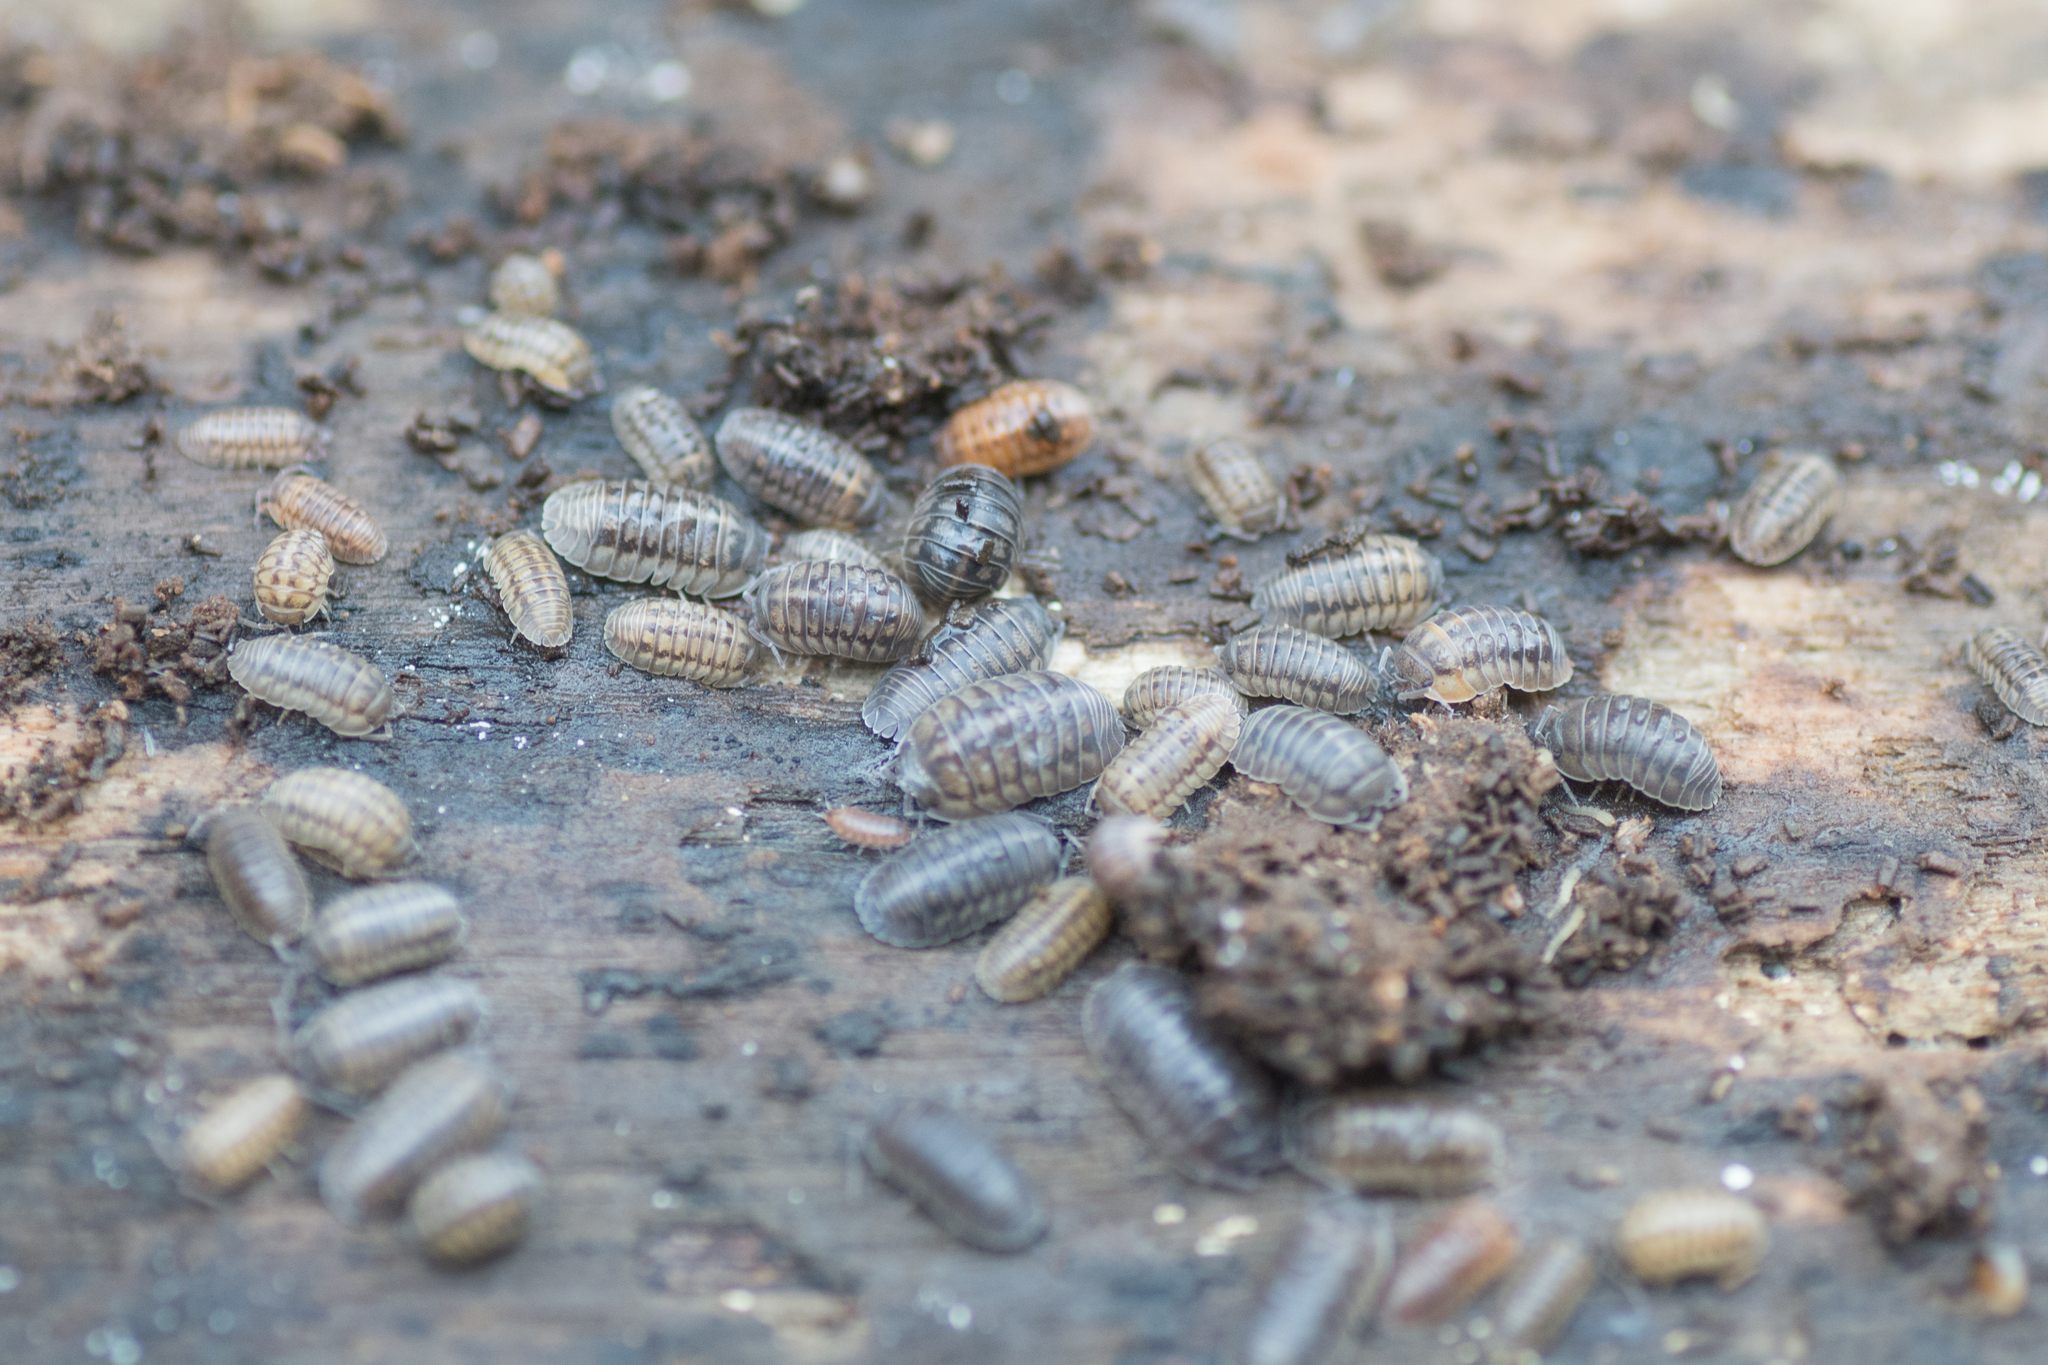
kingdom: Animalia
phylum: Arthropoda
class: Malacostraca
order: Isopoda
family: Armadillidiidae
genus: Armadillidium
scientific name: Armadillidium nasatum
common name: Isopod
